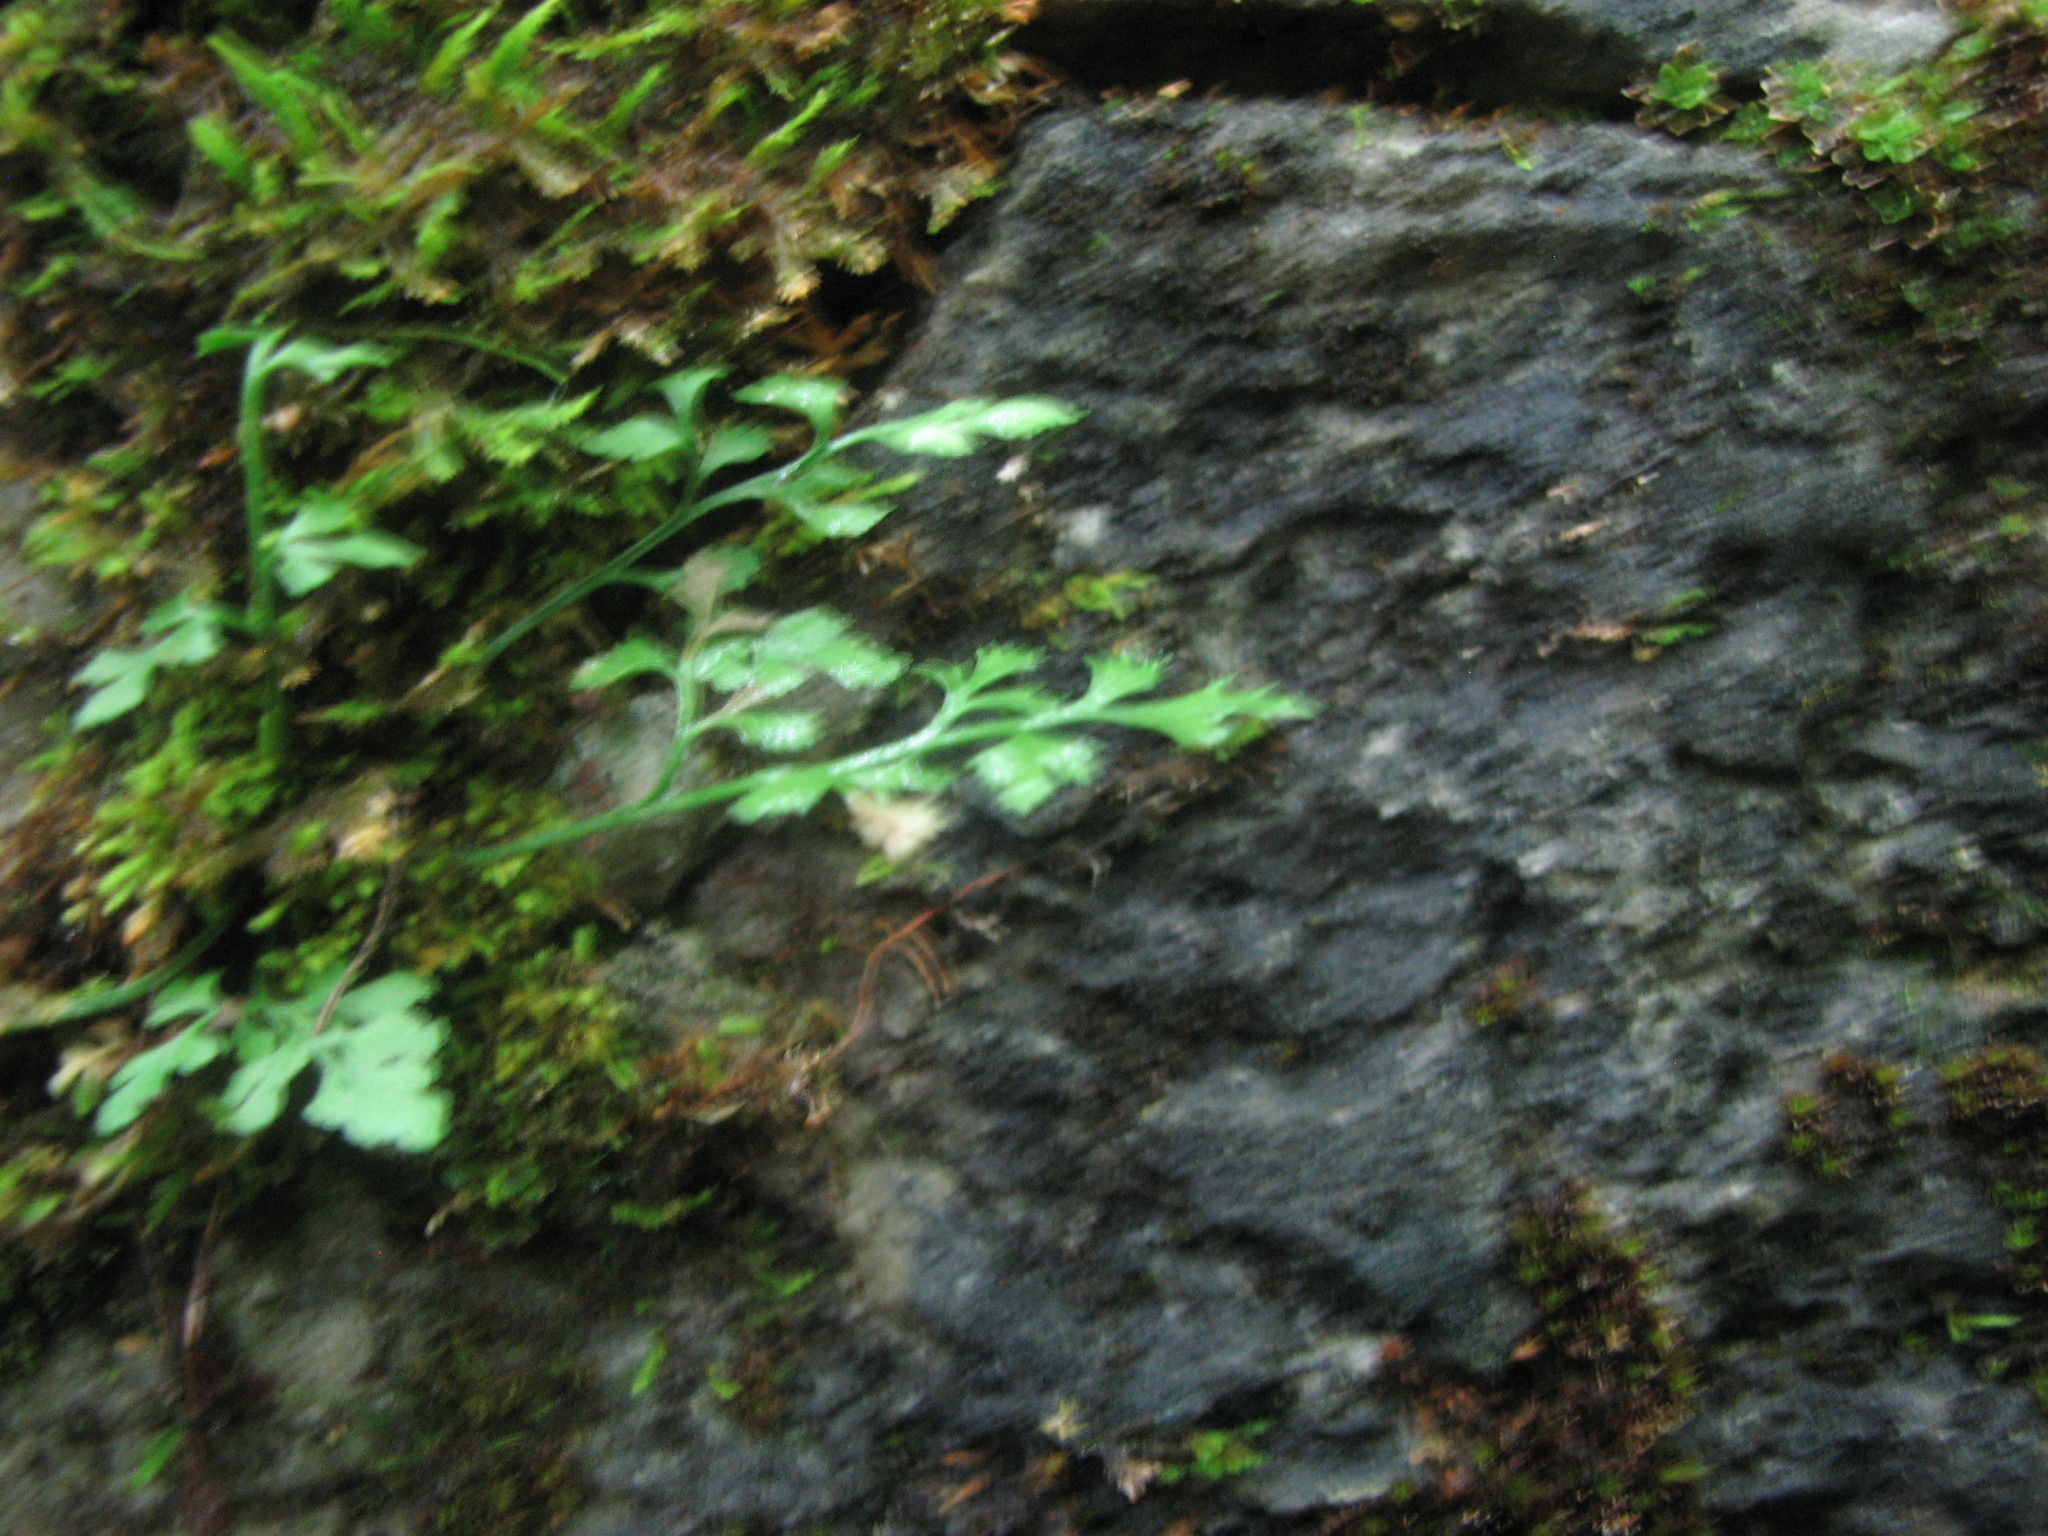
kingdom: Plantae
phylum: Tracheophyta
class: Polypodiopsida
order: Polypodiales
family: Aspleniaceae
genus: Asplenium
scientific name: Asplenium ruta-muraria
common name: Wall-rue
